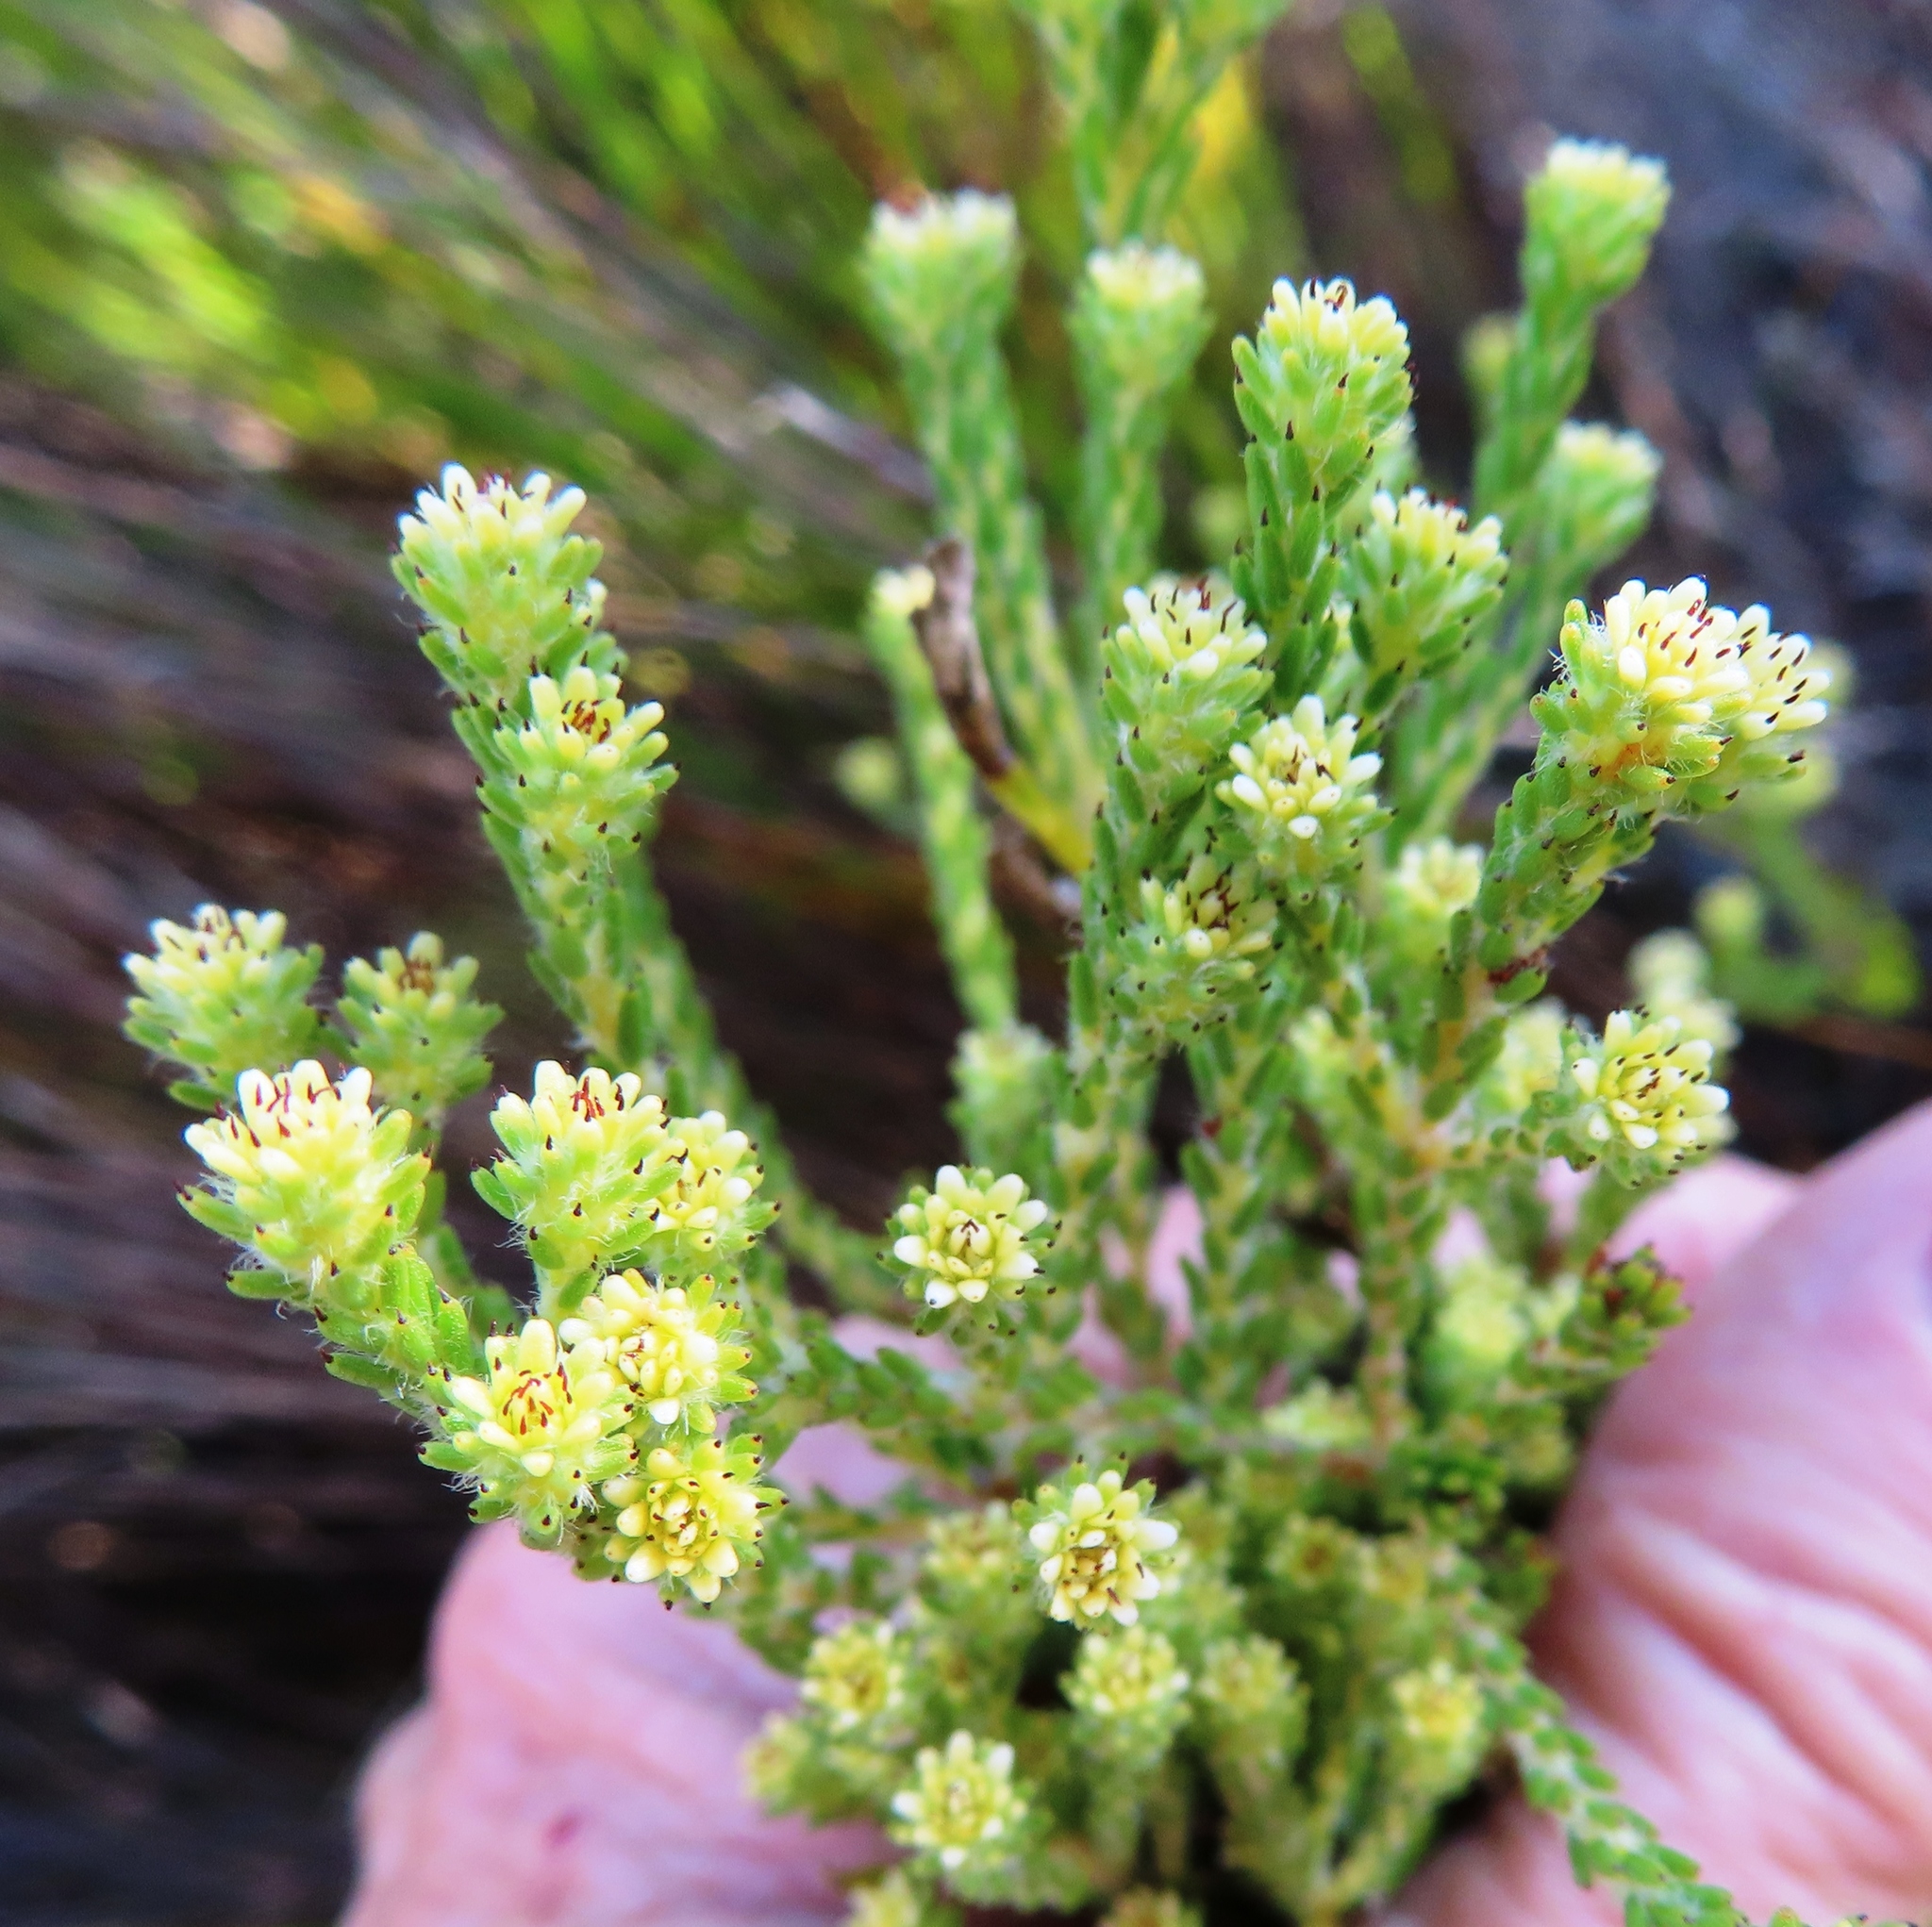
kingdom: Plantae
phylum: Tracheophyta
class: Magnoliopsida
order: Bruniales
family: Bruniaceae
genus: Staavia
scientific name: Staavia radiata
